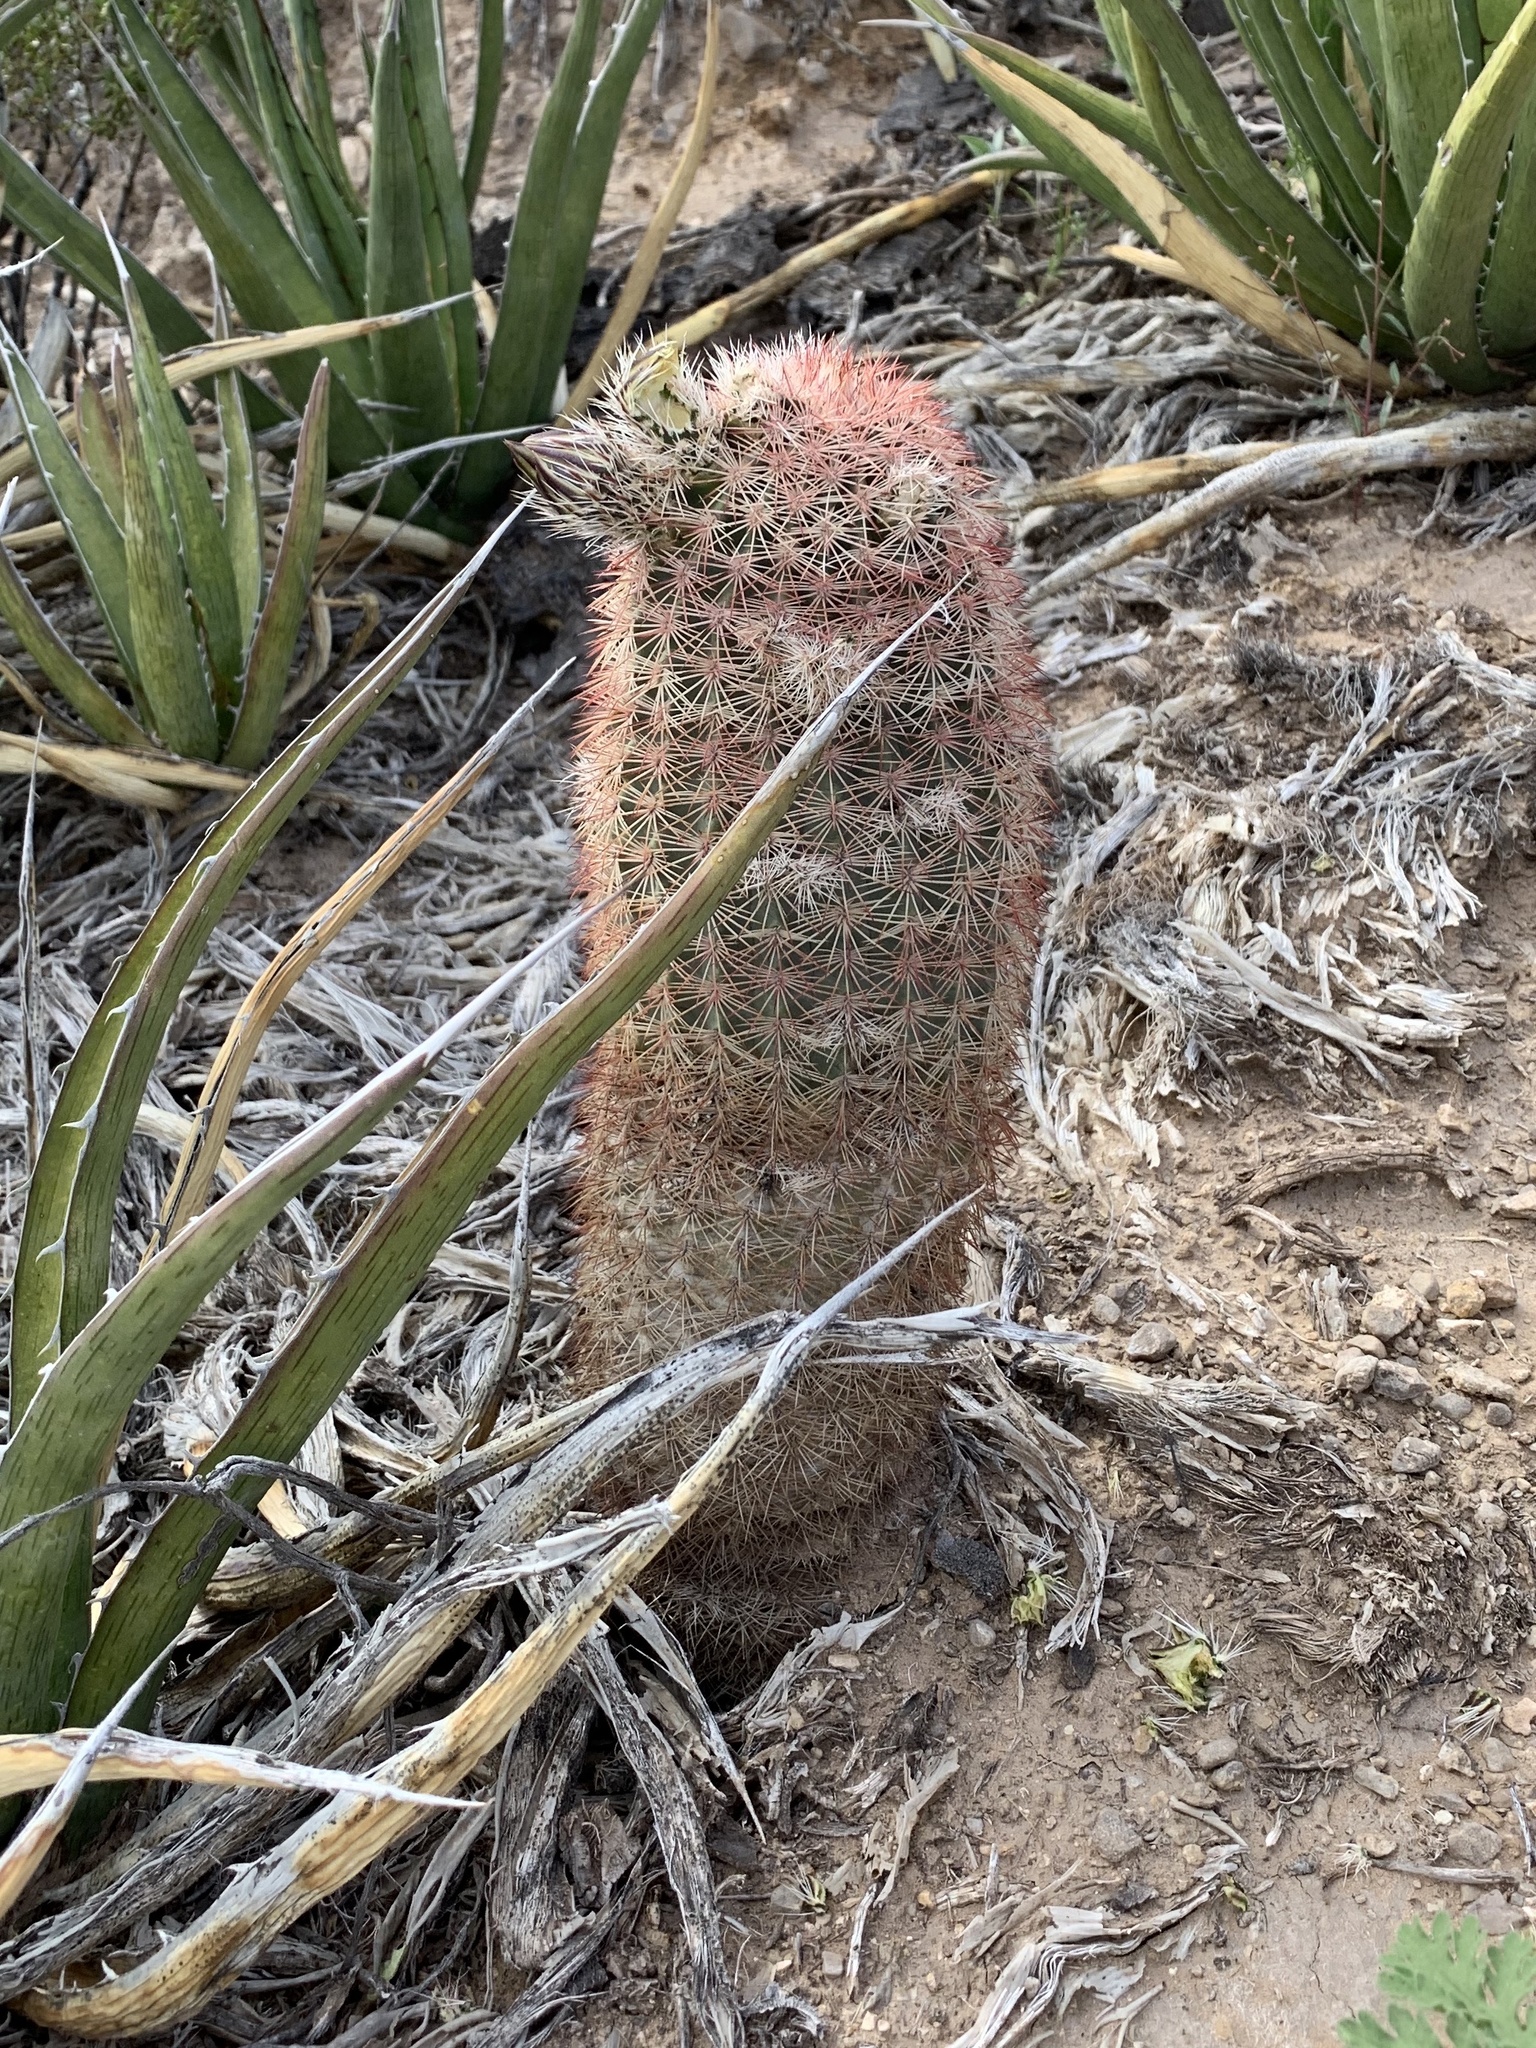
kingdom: Plantae
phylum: Tracheophyta
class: Magnoliopsida
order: Caryophyllales
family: Cactaceae
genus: Echinocereus
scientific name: Echinocereus dasyacanthus
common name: Spiny hedgehog cactus
